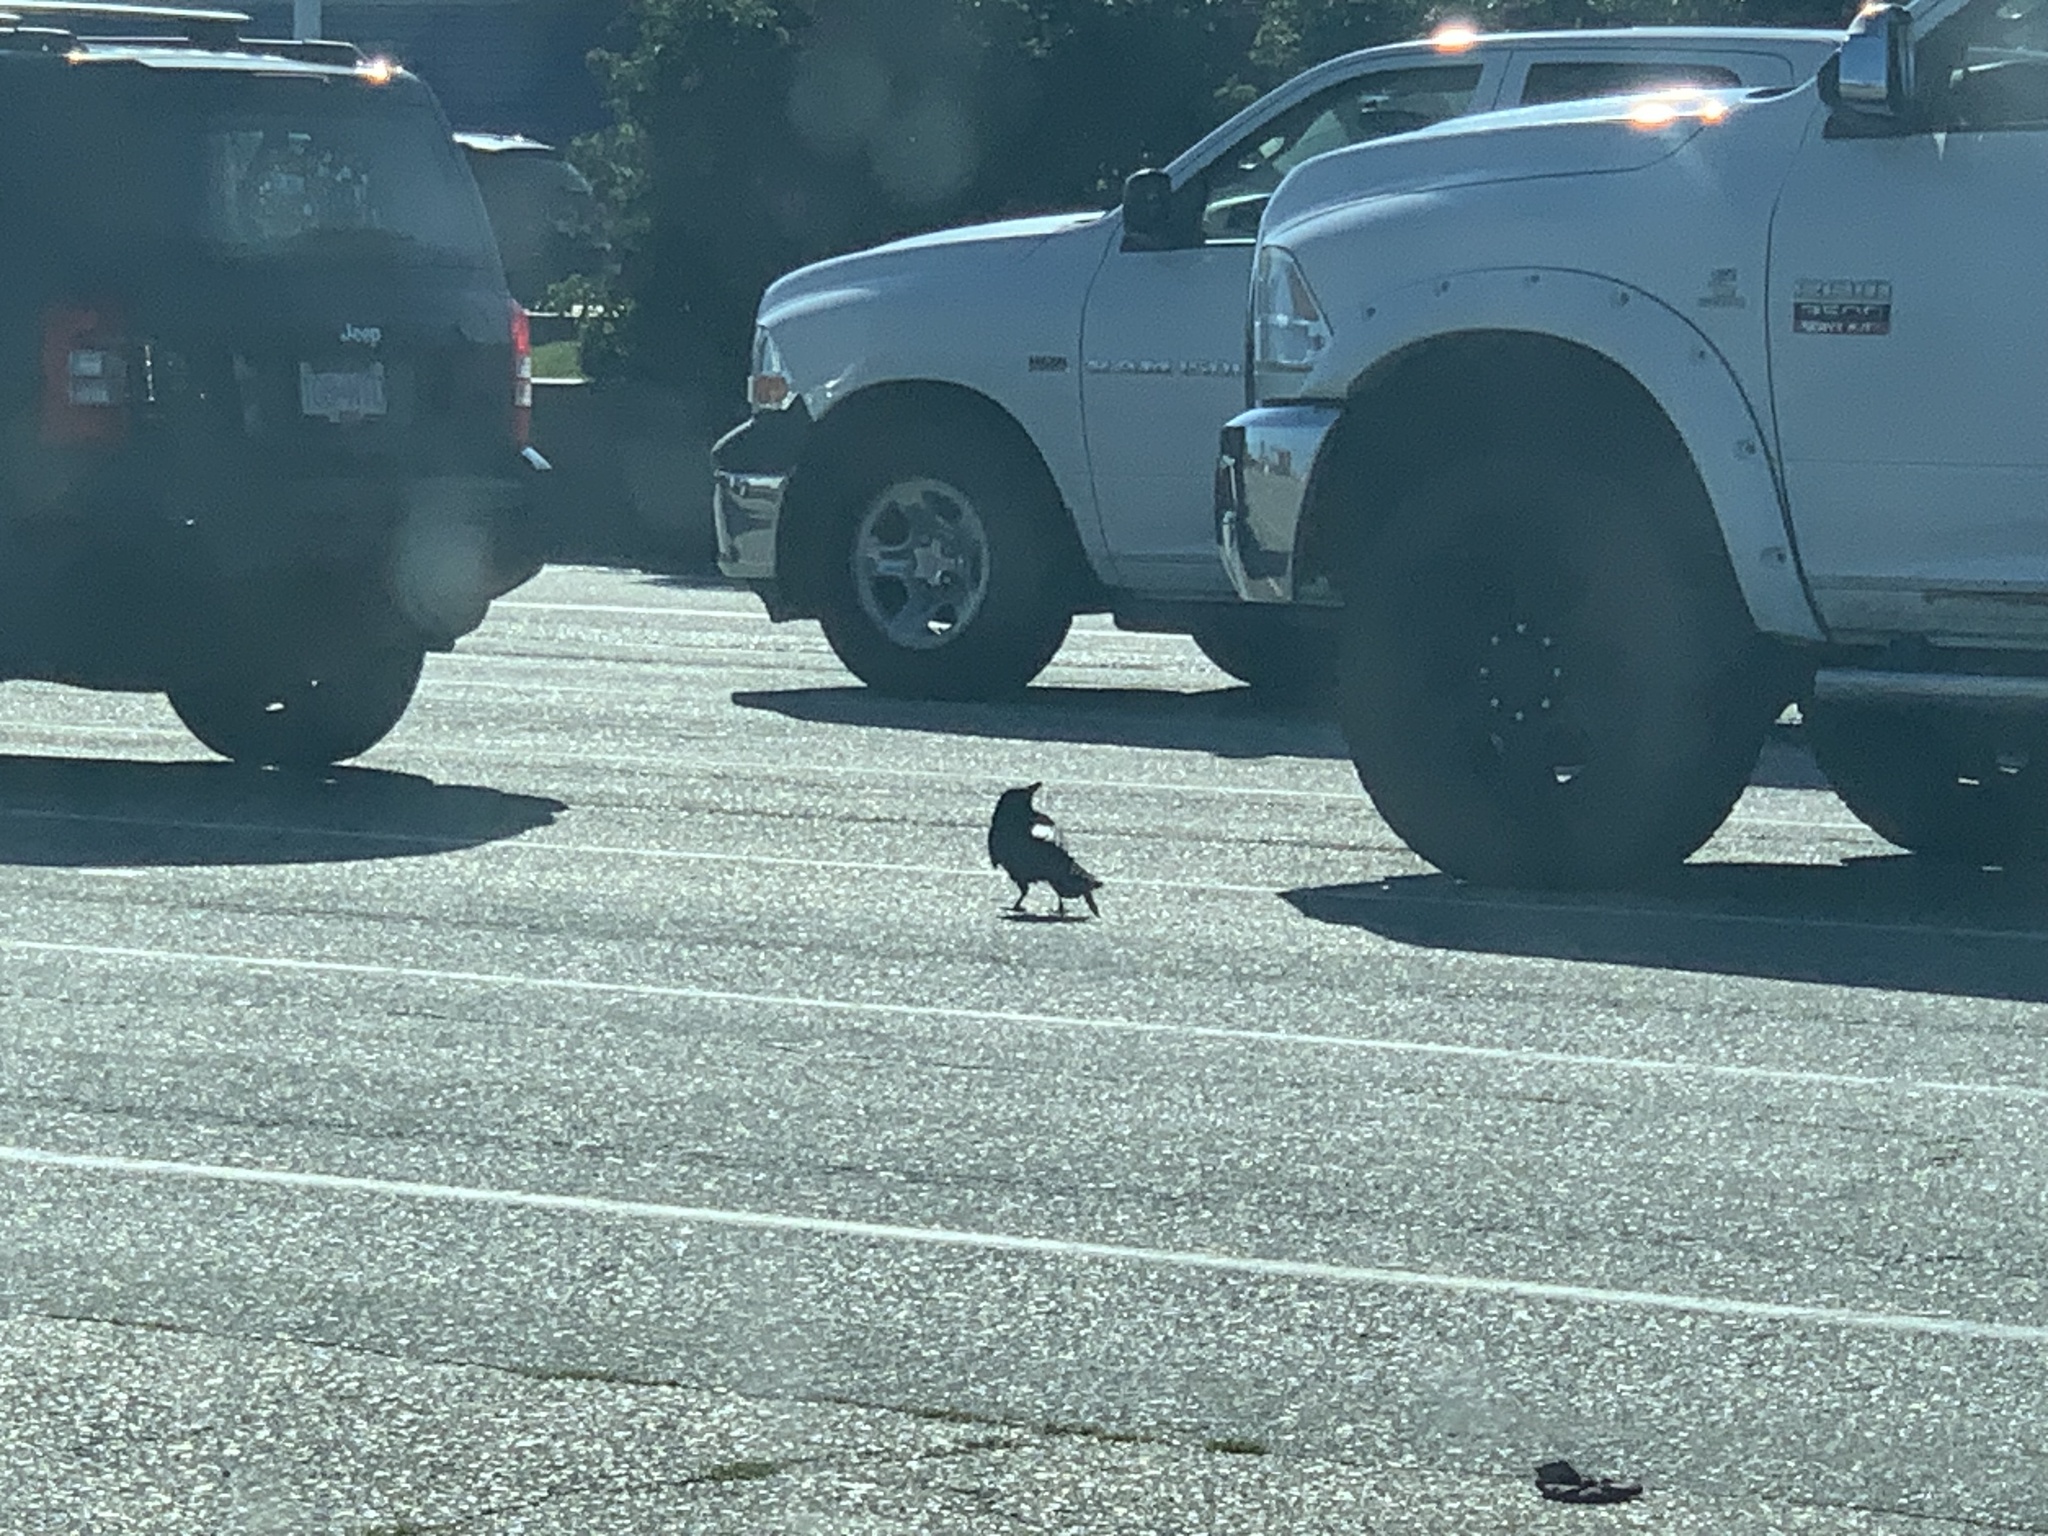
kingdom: Animalia
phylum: Chordata
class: Aves
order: Passeriformes
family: Corvidae
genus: Corvus
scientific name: Corvus brachyrhynchos
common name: American crow
